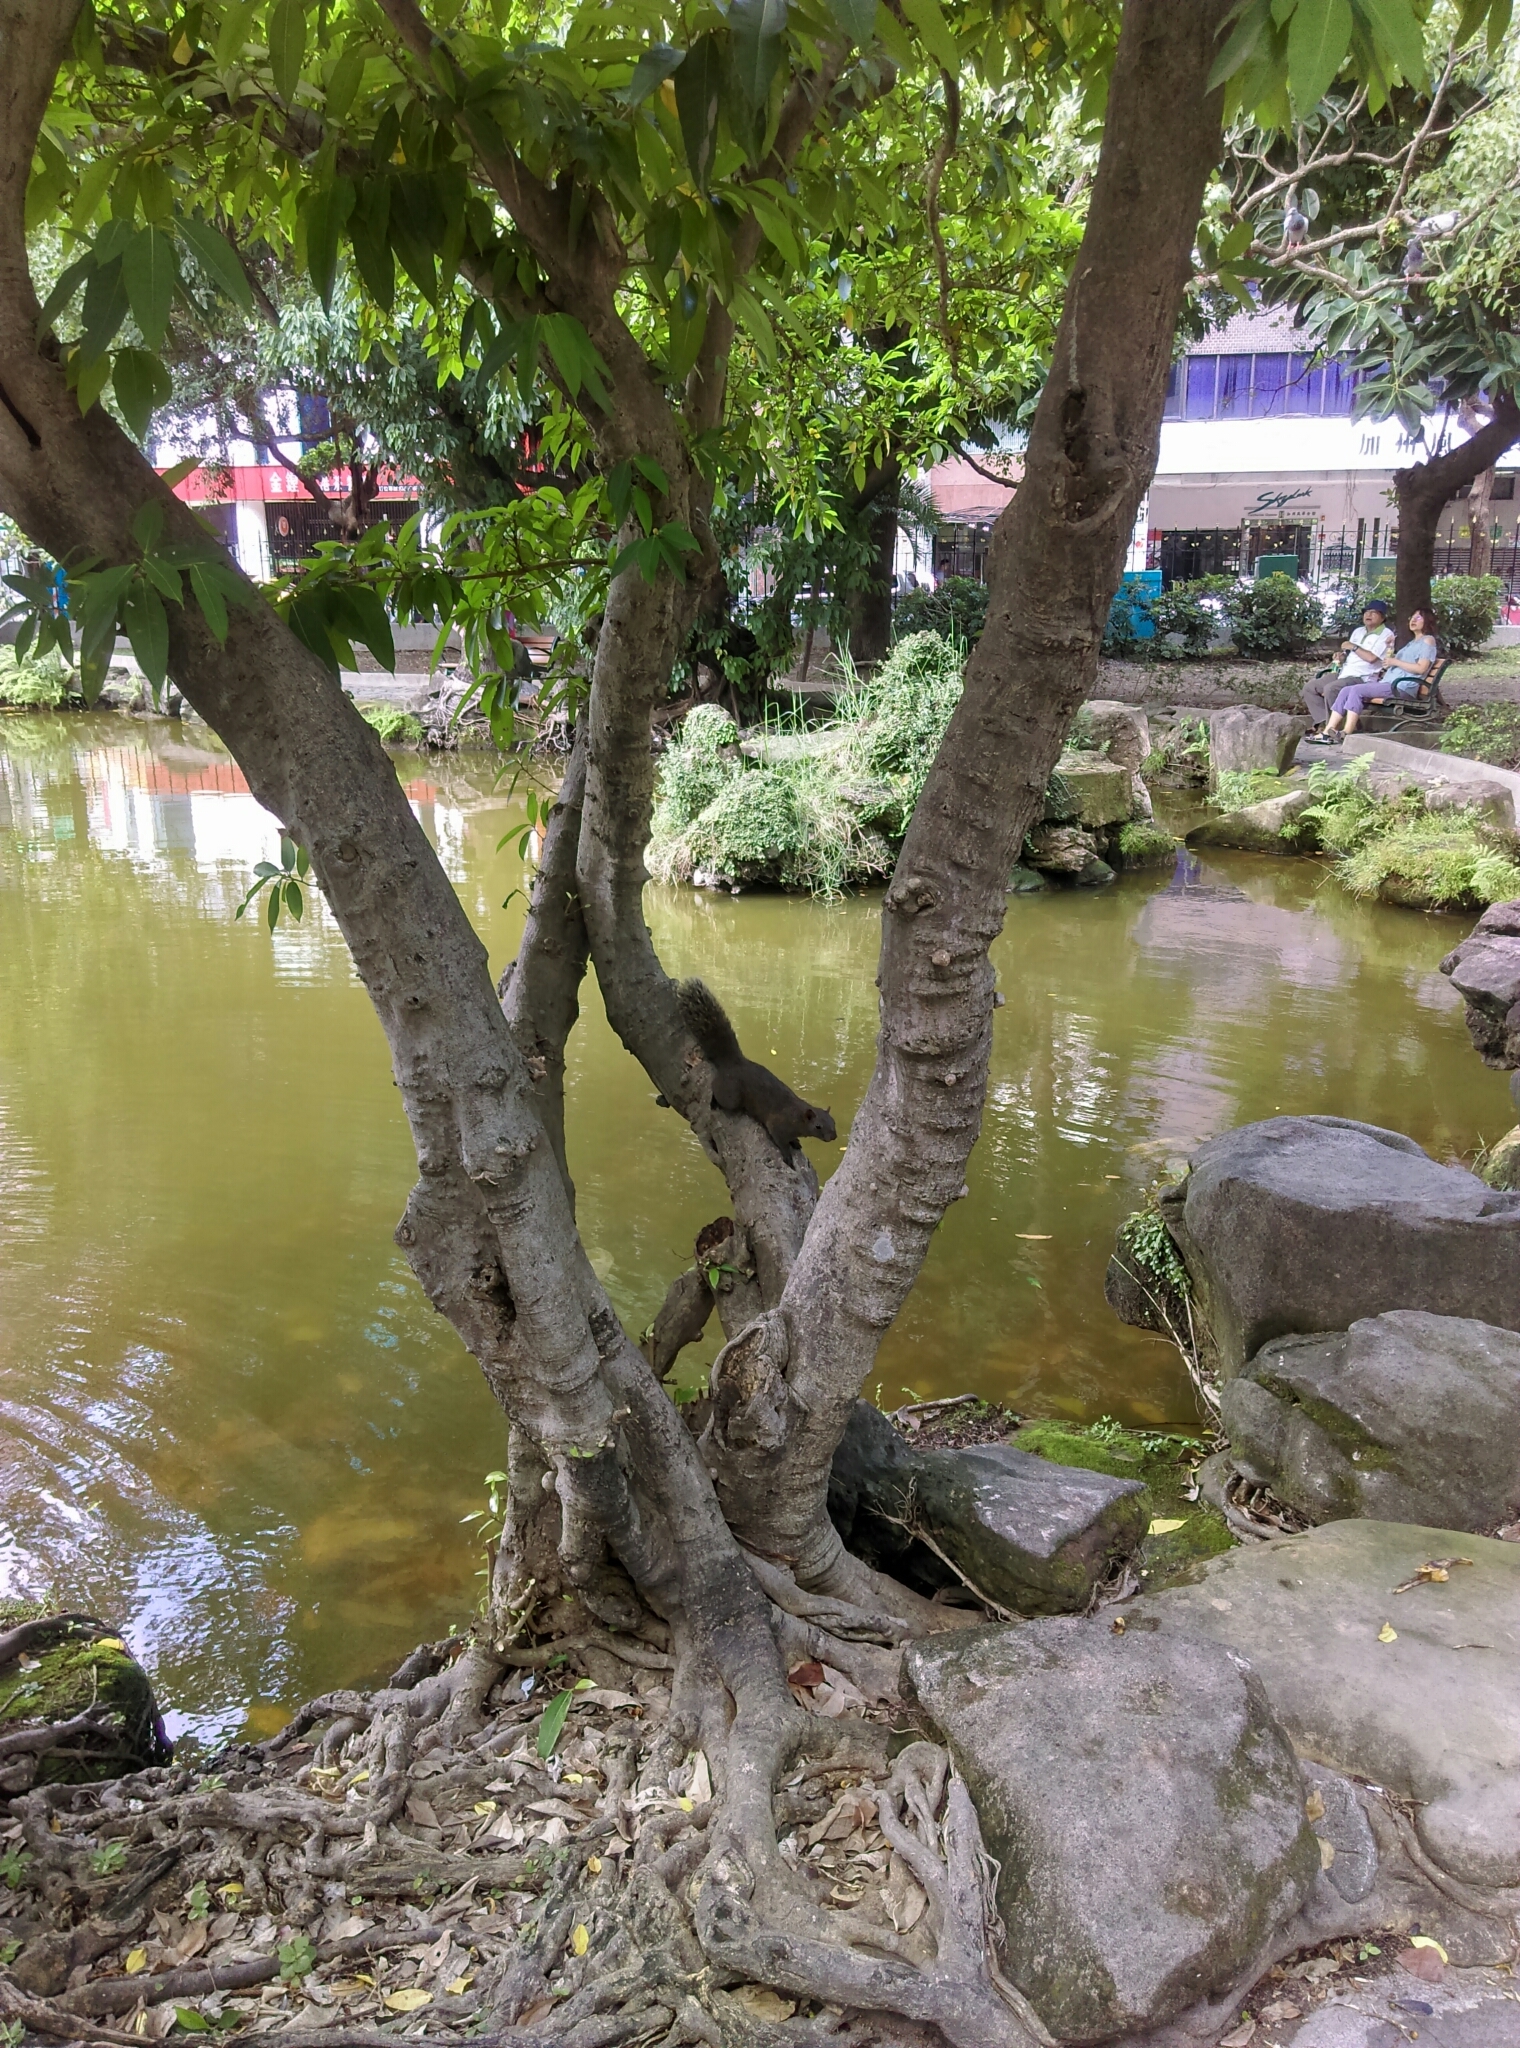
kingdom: Plantae
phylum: Tracheophyta
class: Magnoliopsida
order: Rosales
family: Moraceae
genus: Ficus
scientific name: Ficus virgata
